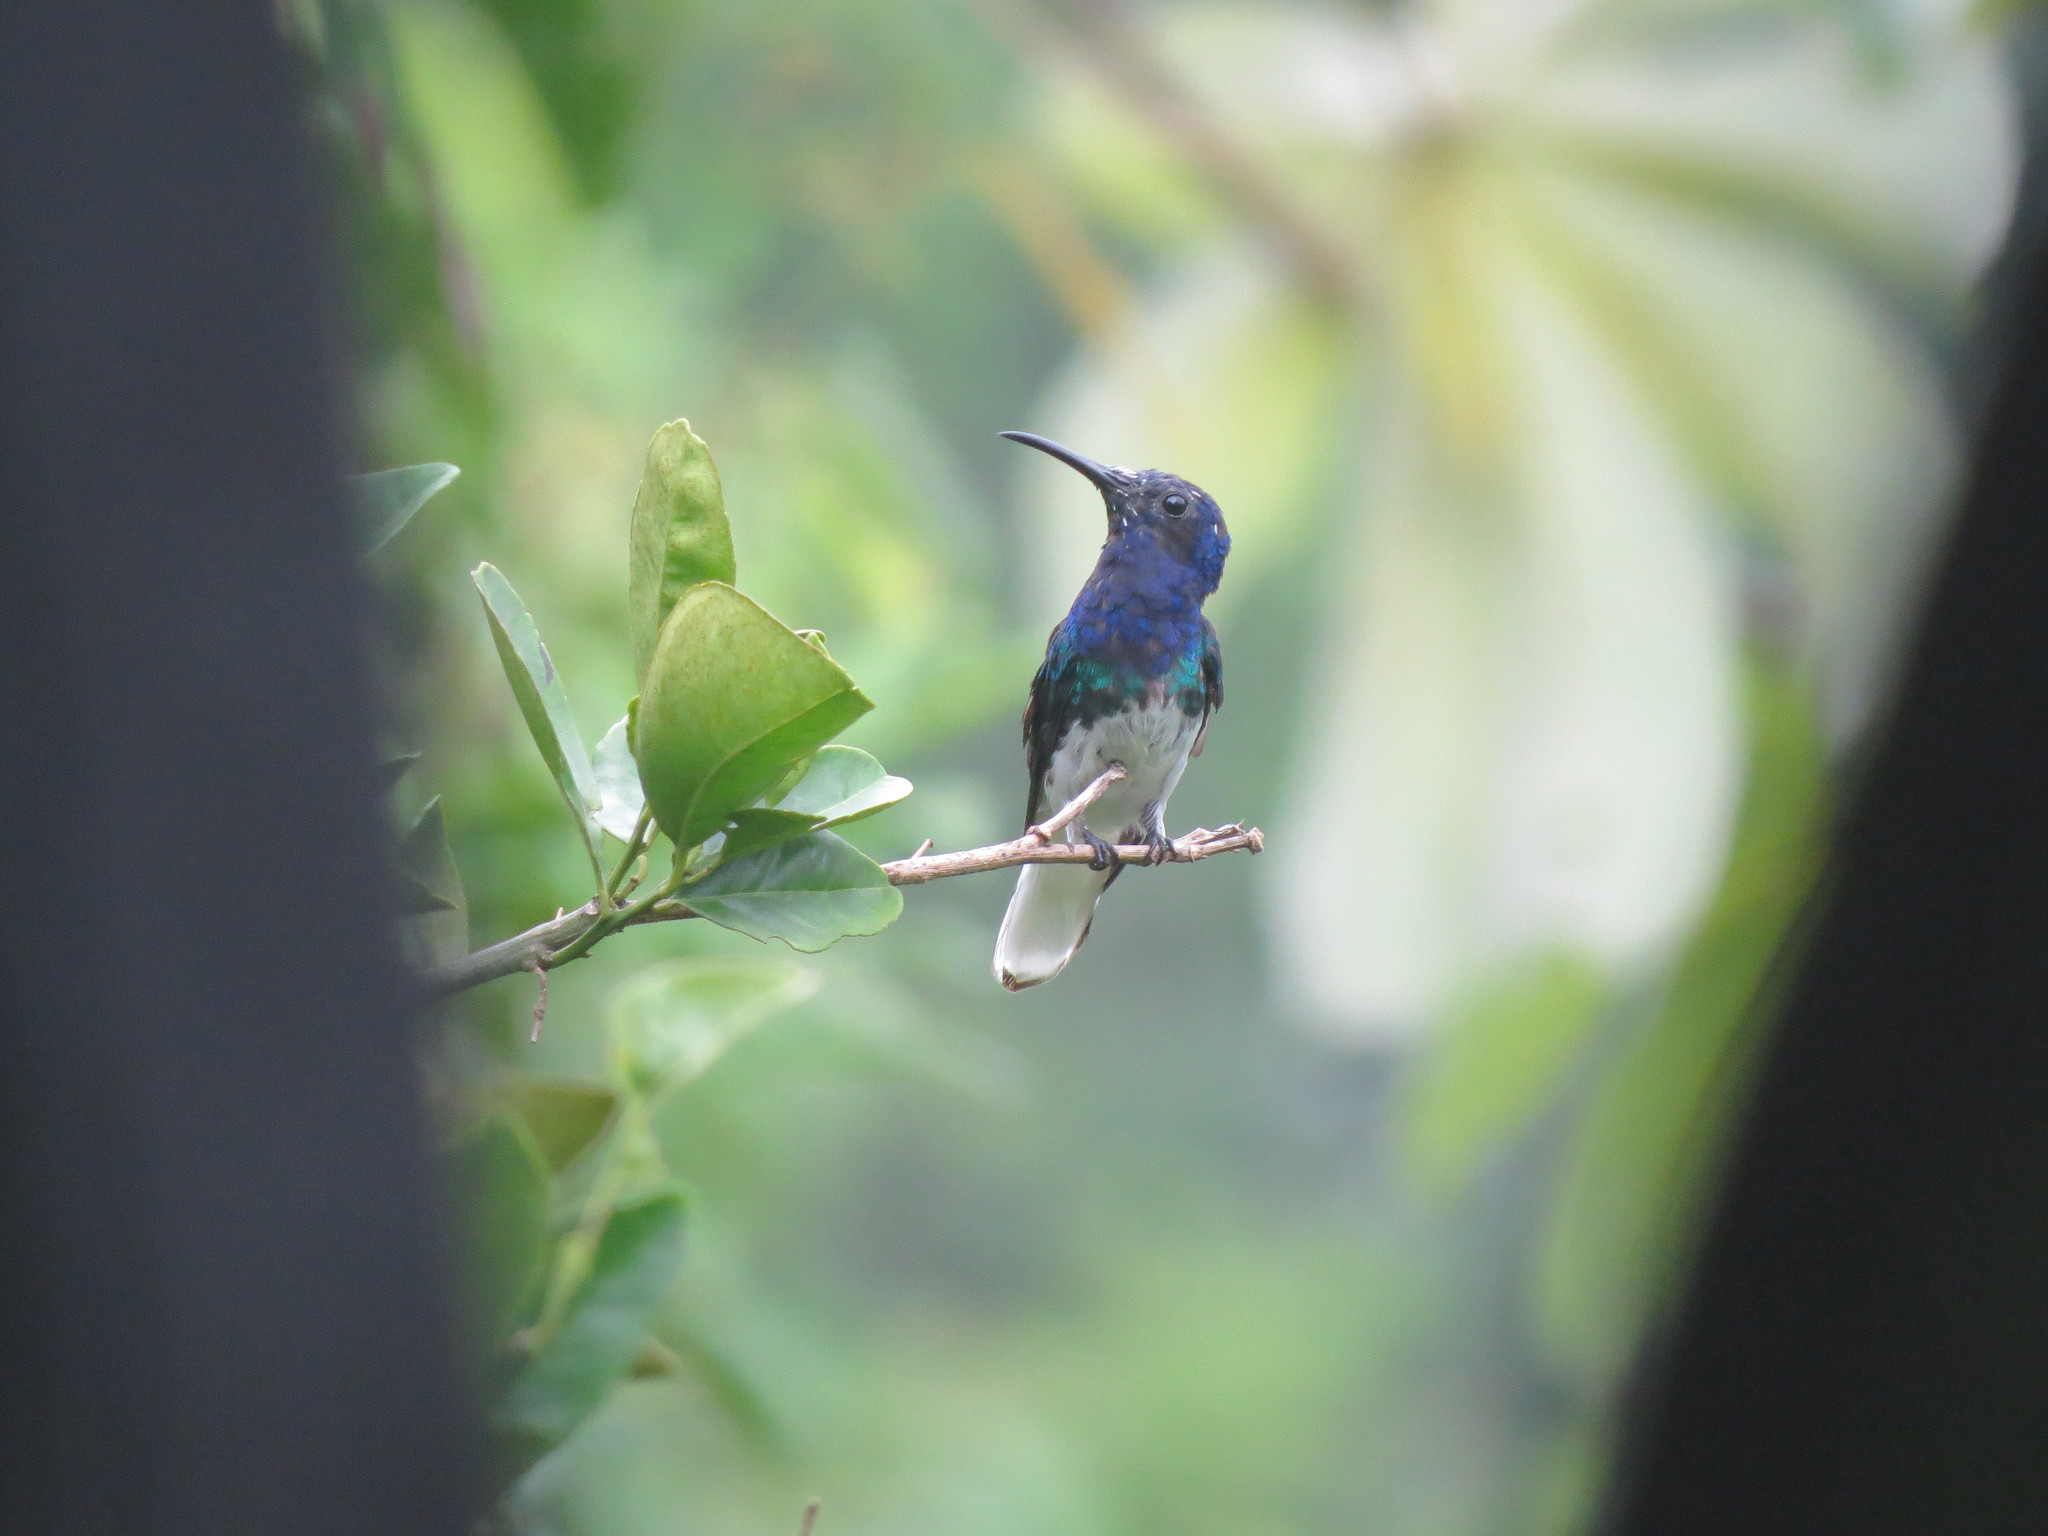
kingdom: Animalia
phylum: Chordata
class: Aves
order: Apodiformes
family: Trochilidae
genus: Florisuga
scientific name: Florisuga mellivora
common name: White-necked jacobin
